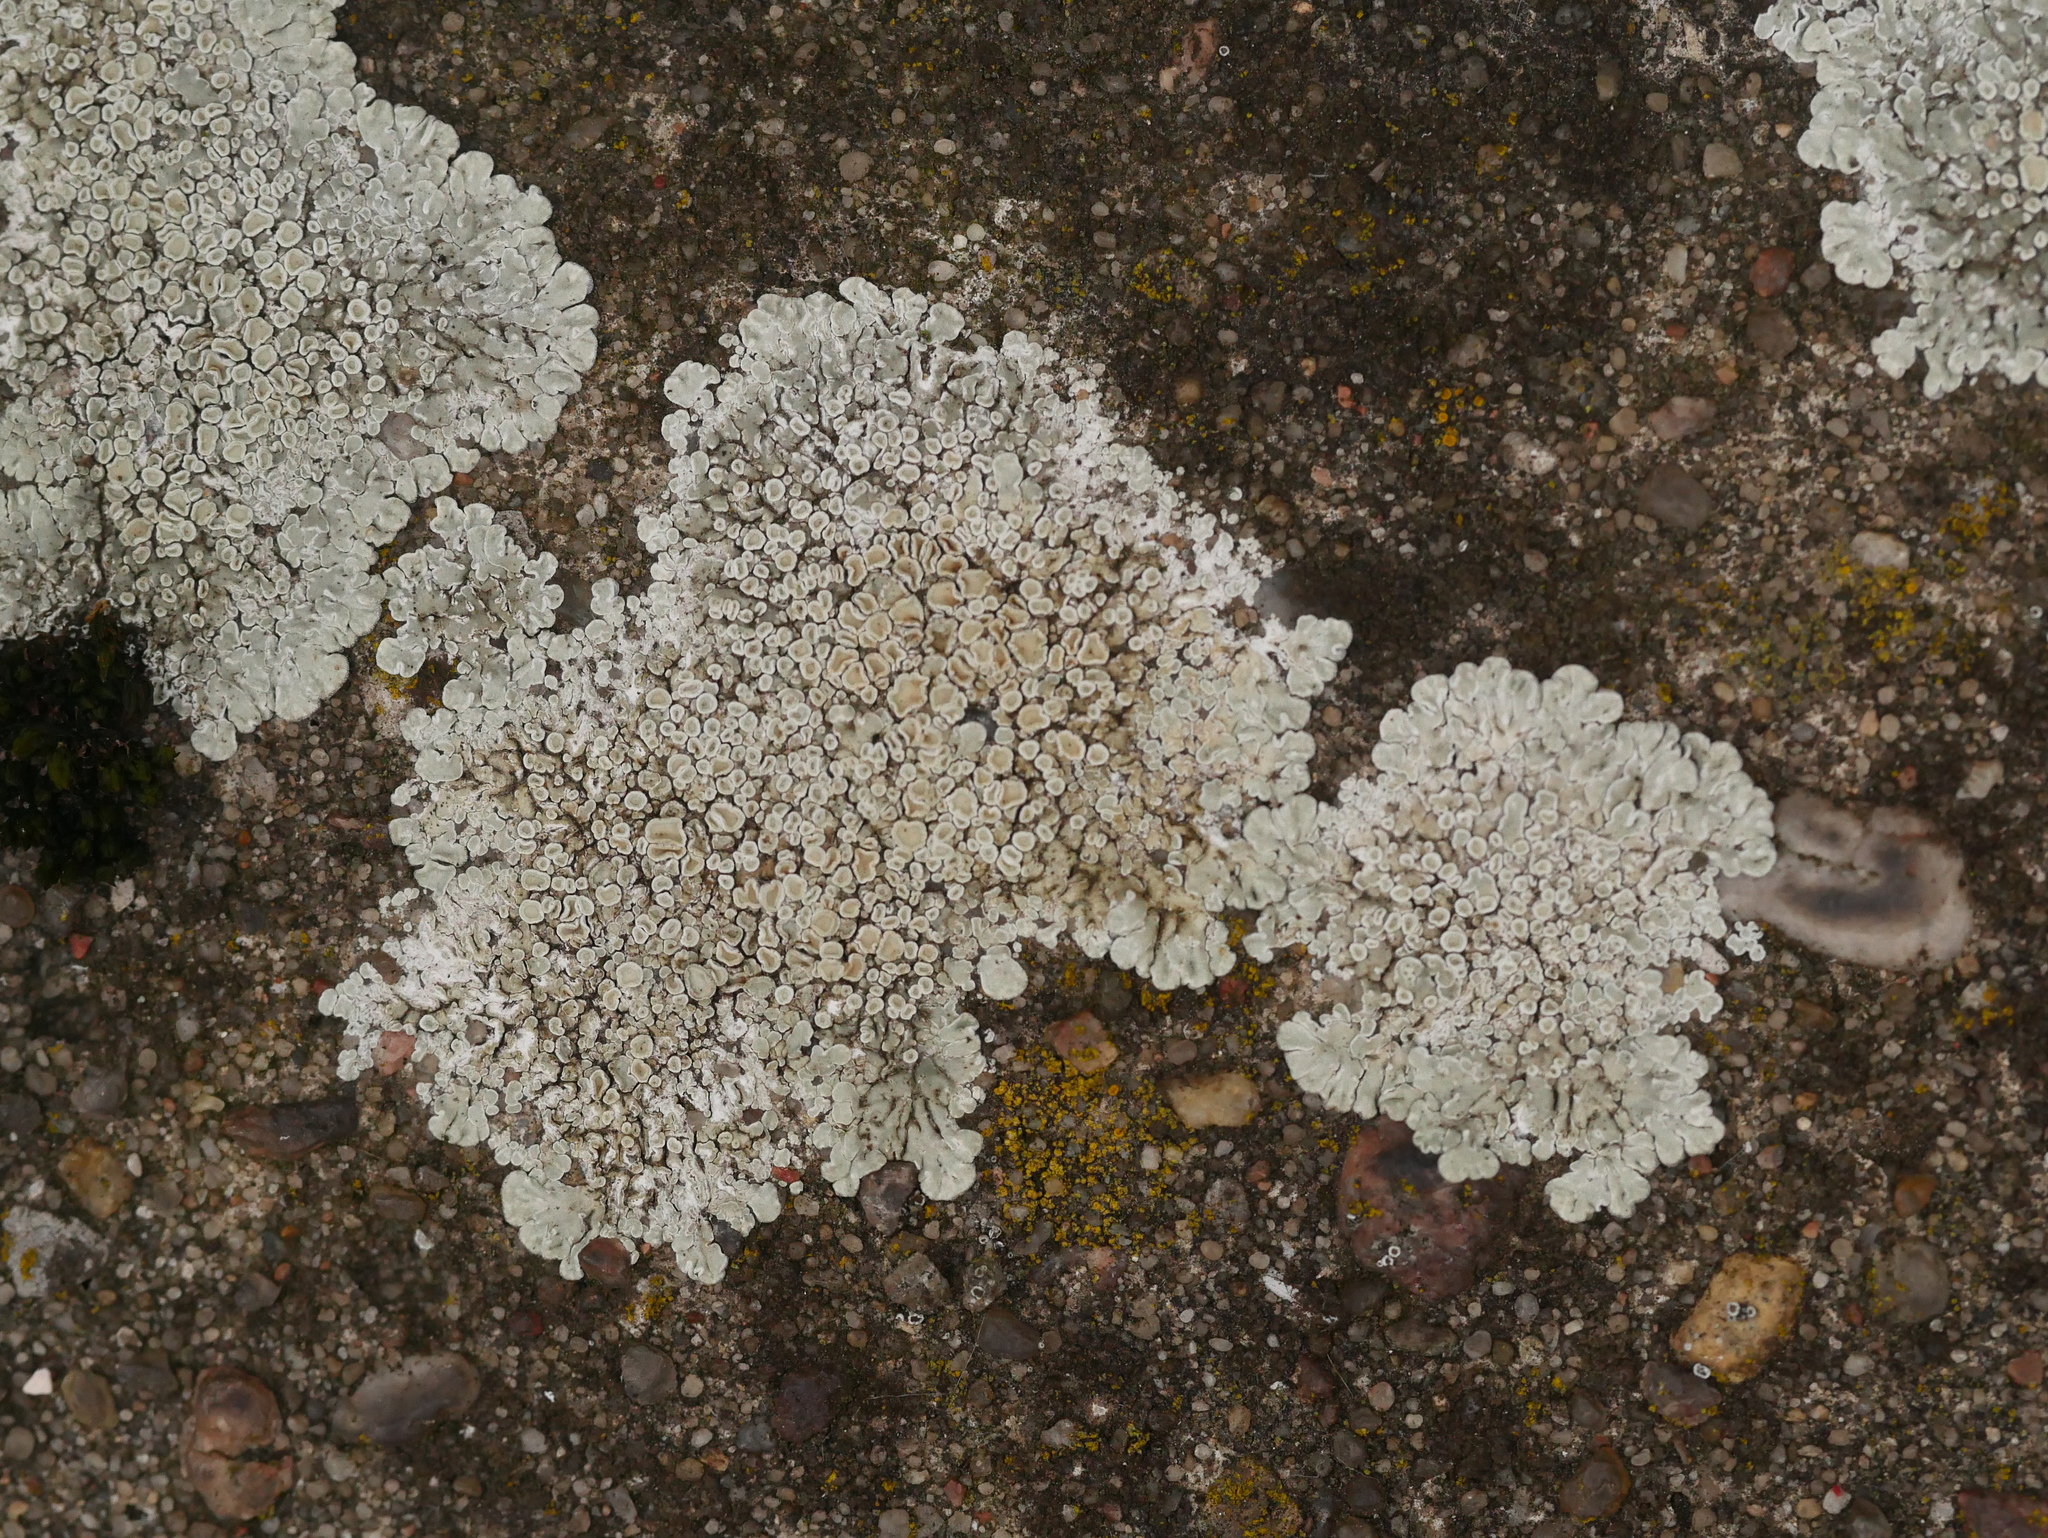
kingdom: Fungi
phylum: Ascomycota
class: Lecanoromycetes
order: Lecanorales
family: Lecanoraceae
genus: Protoparmeliopsis
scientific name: Protoparmeliopsis muralis
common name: Stonewall rim lichen
